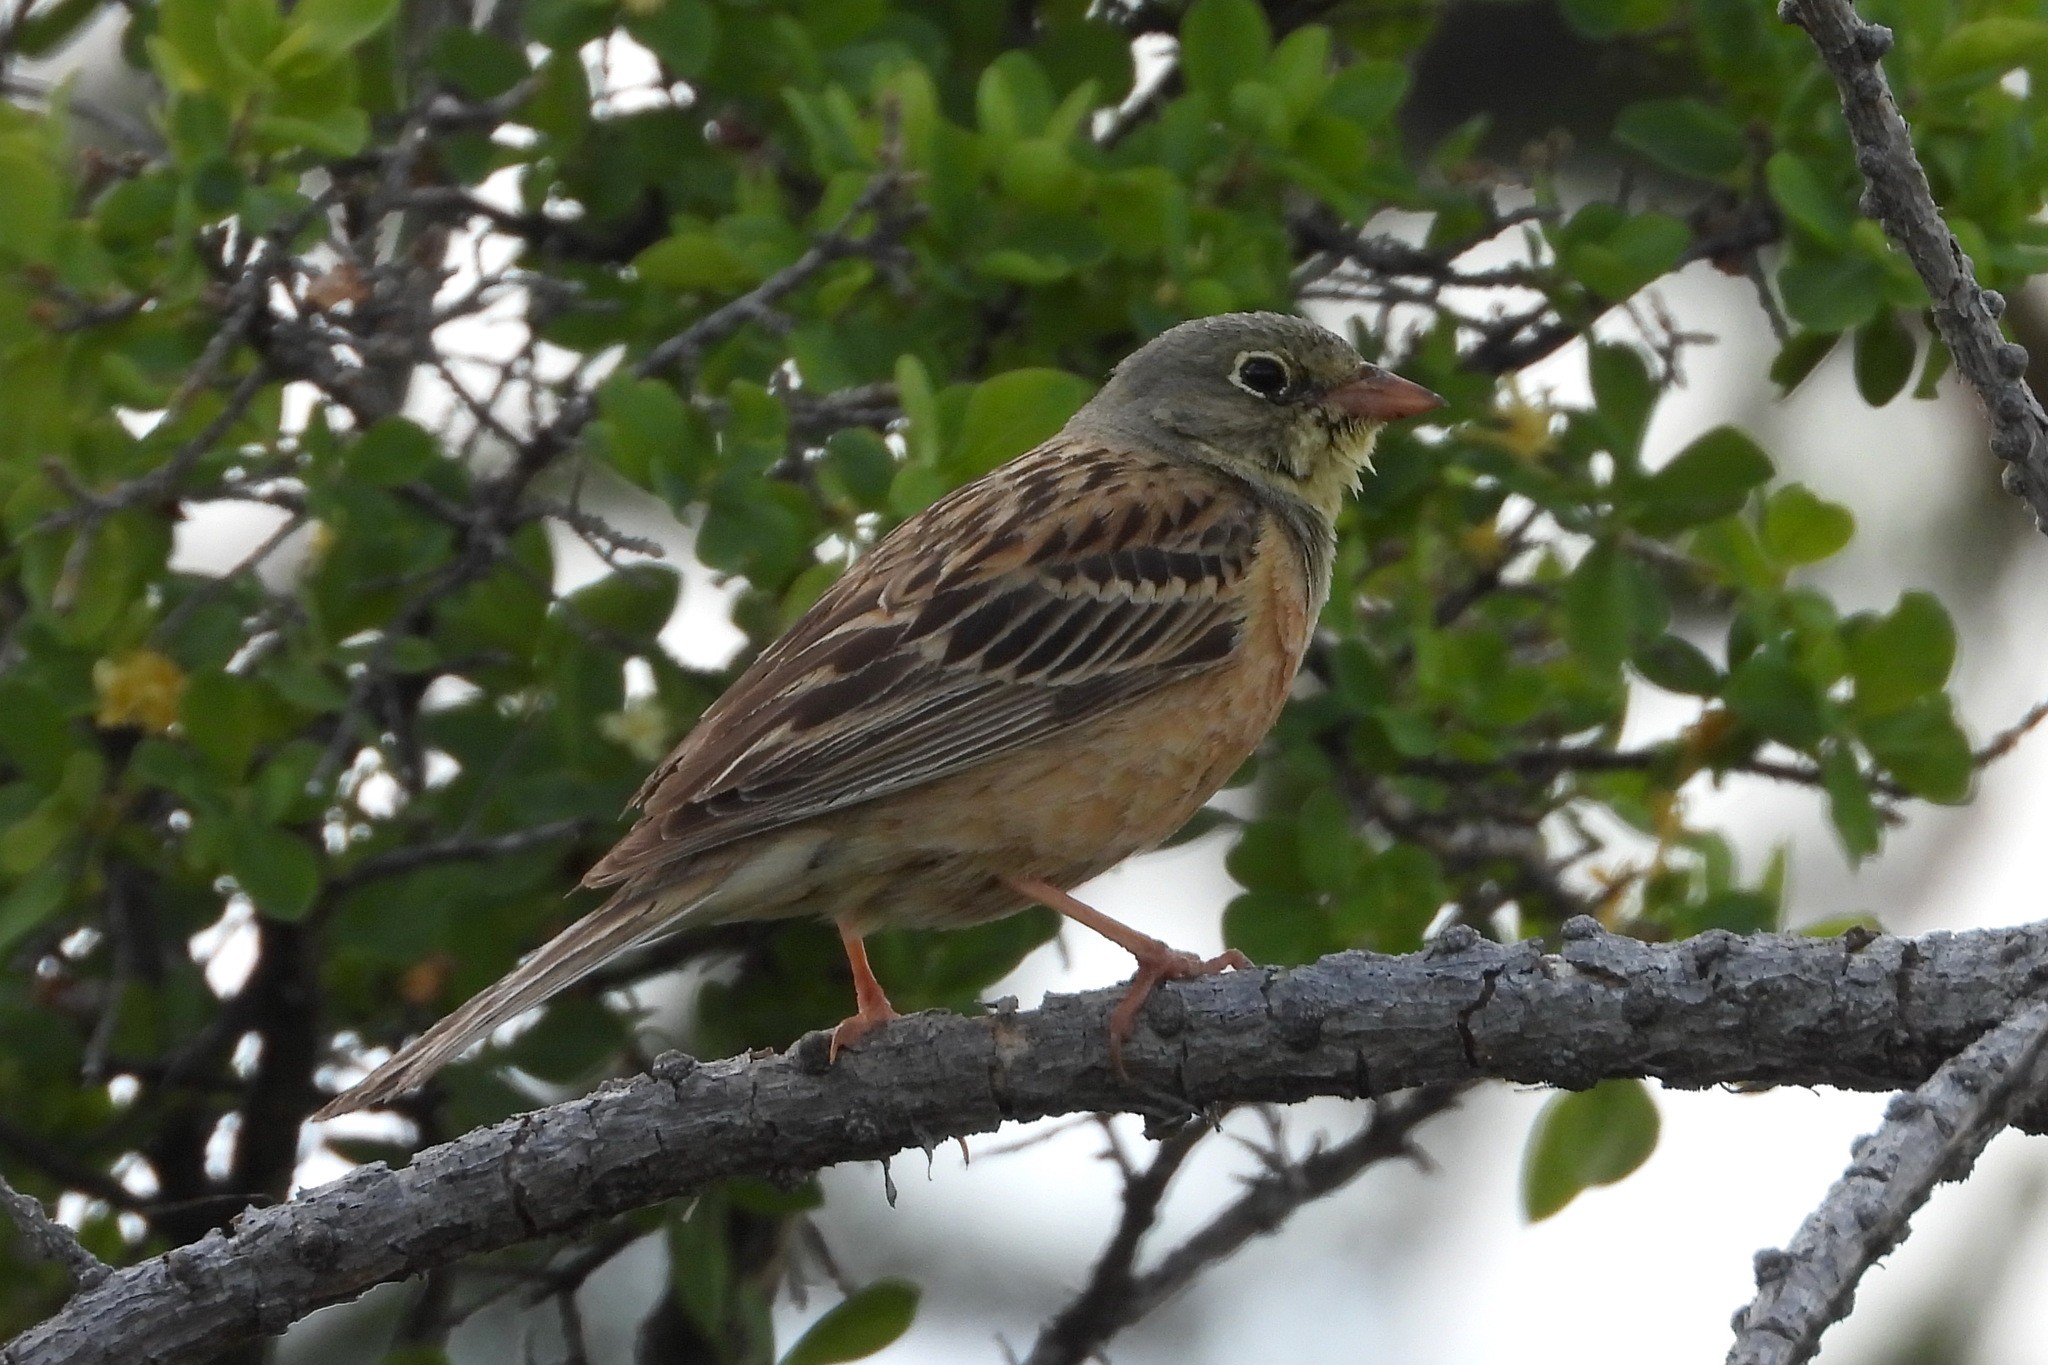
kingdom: Animalia
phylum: Chordata
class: Aves
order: Passeriformes
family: Emberizidae
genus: Emberiza
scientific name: Emberiza hortulana
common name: Ortolan bunting
